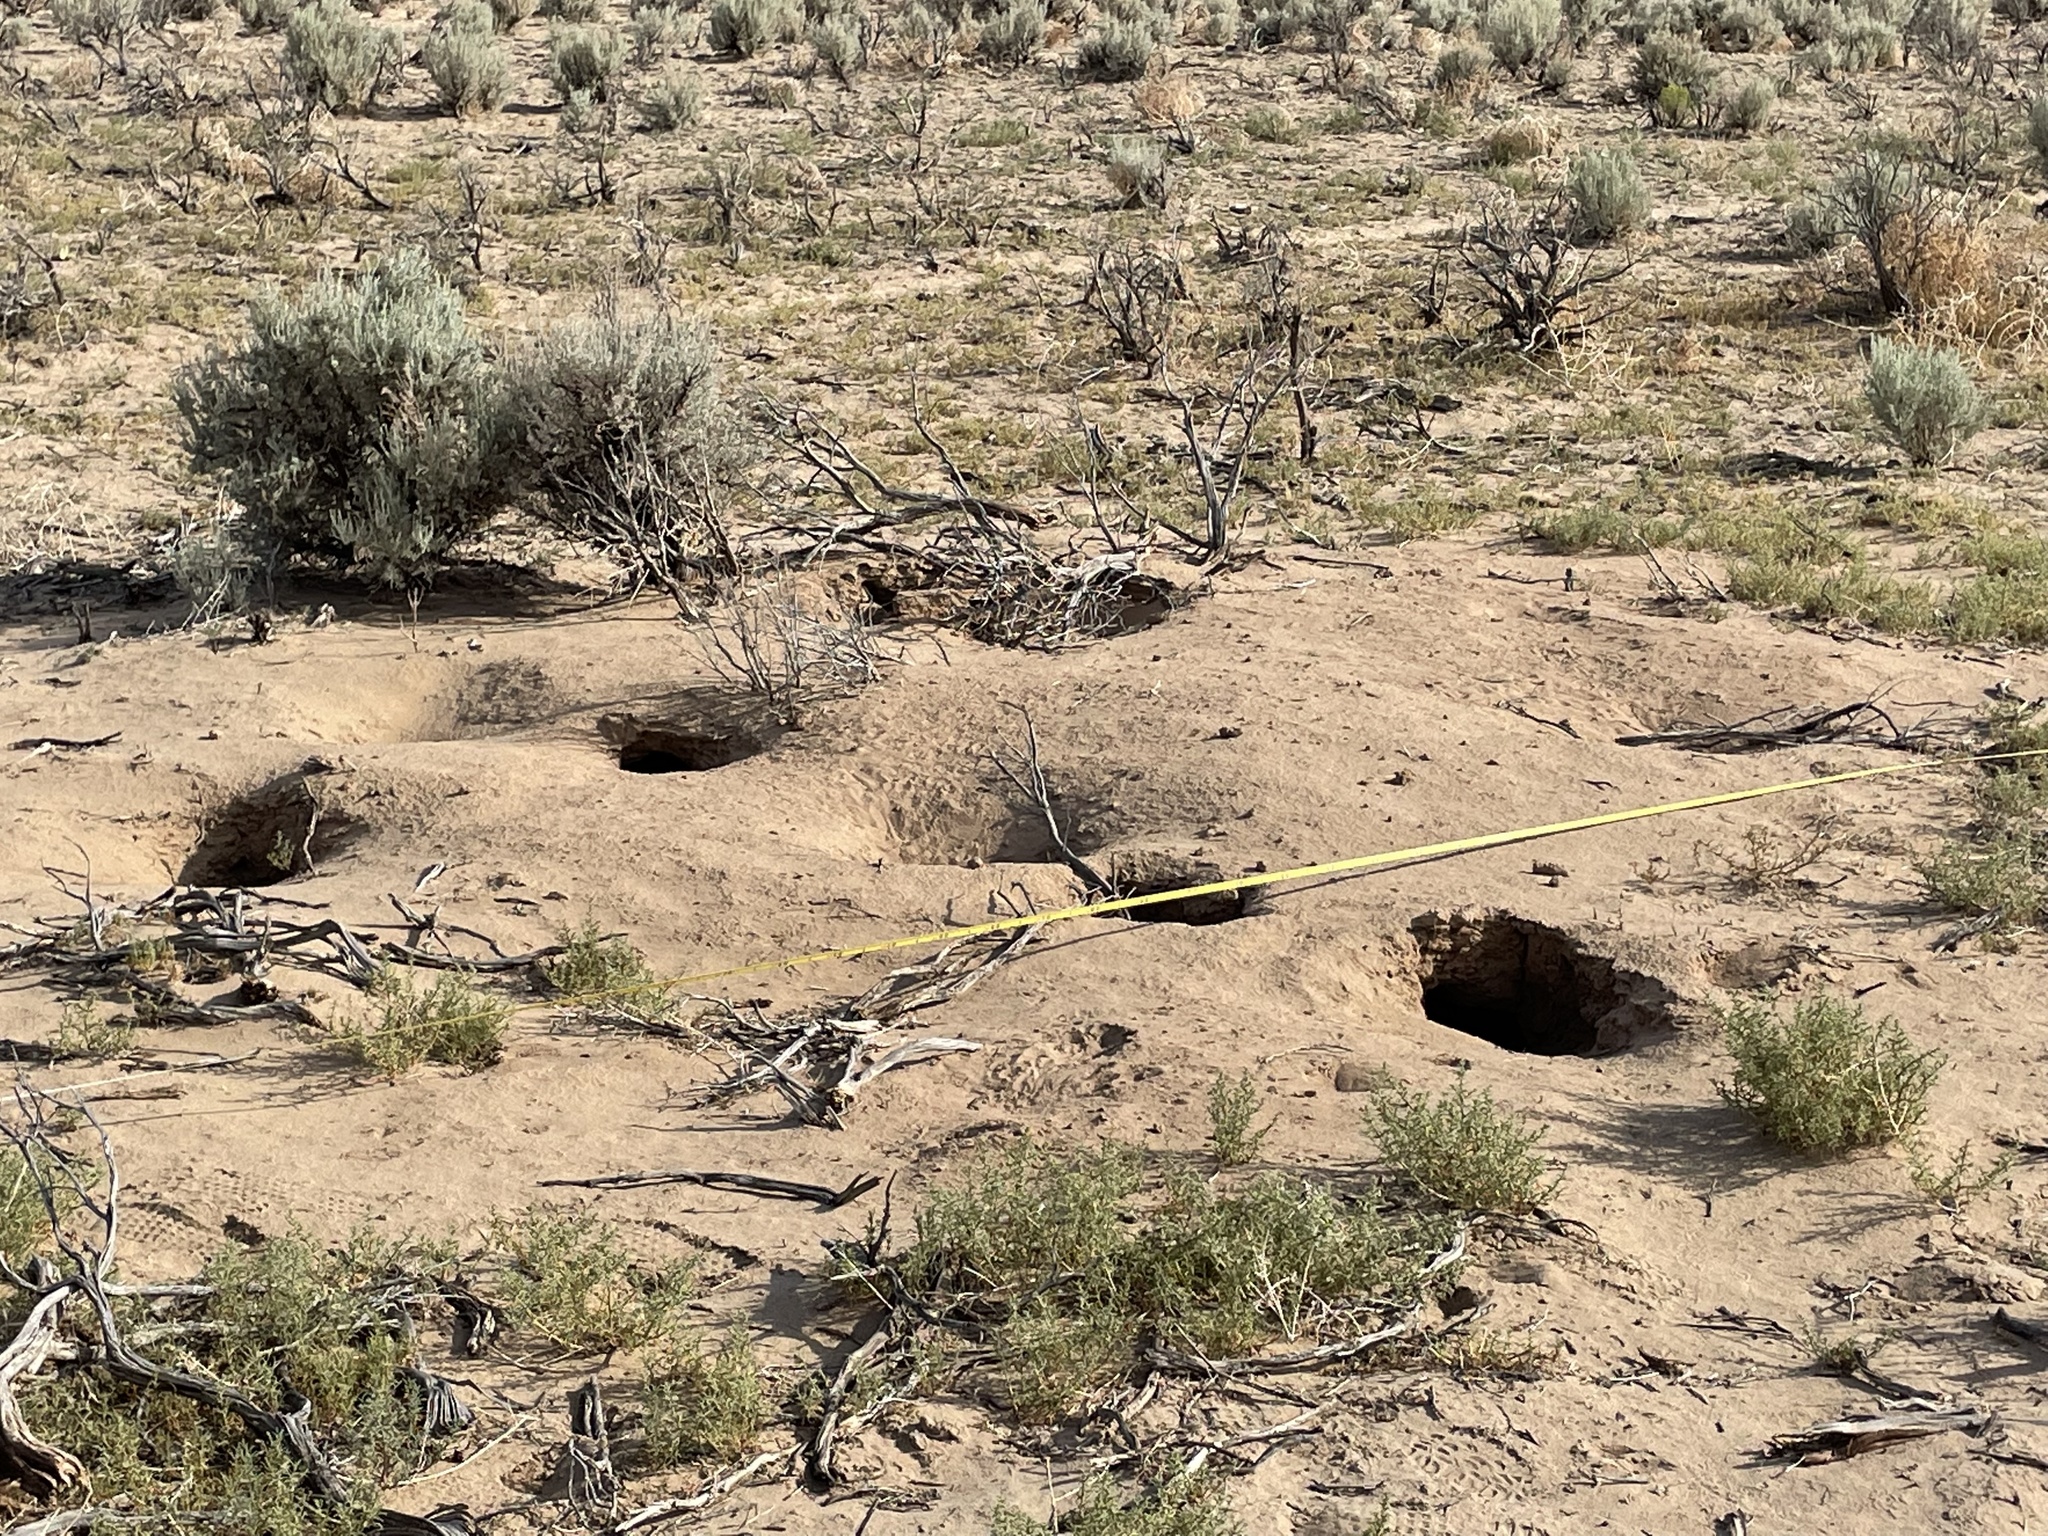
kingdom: Animalia
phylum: Chordata
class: Mammalia
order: Rodentia
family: Sciuridae
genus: Cynomys
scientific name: Cynomys gunnisoni
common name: Gunnison's prairie dog
